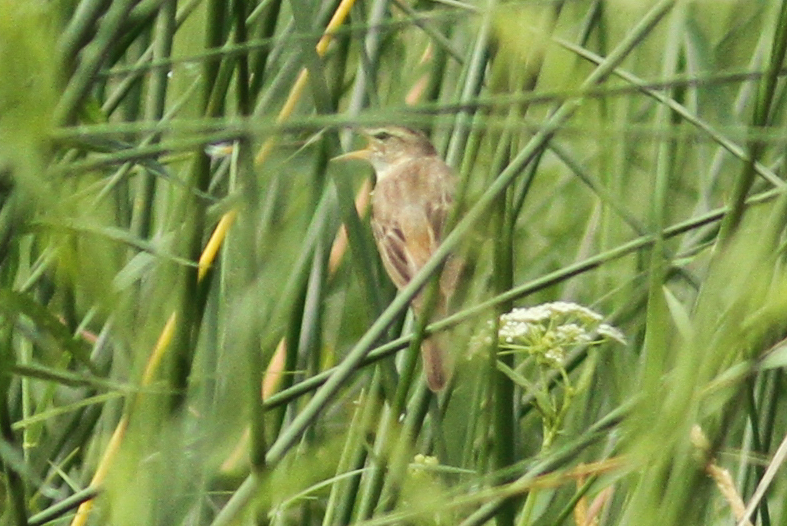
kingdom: Animalia
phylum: Chordata
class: Aves
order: Passeriformes
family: Acrocephalidae
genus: Acrocephalus
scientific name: Acrocephalus schoenobaenus
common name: Sedge warbler
